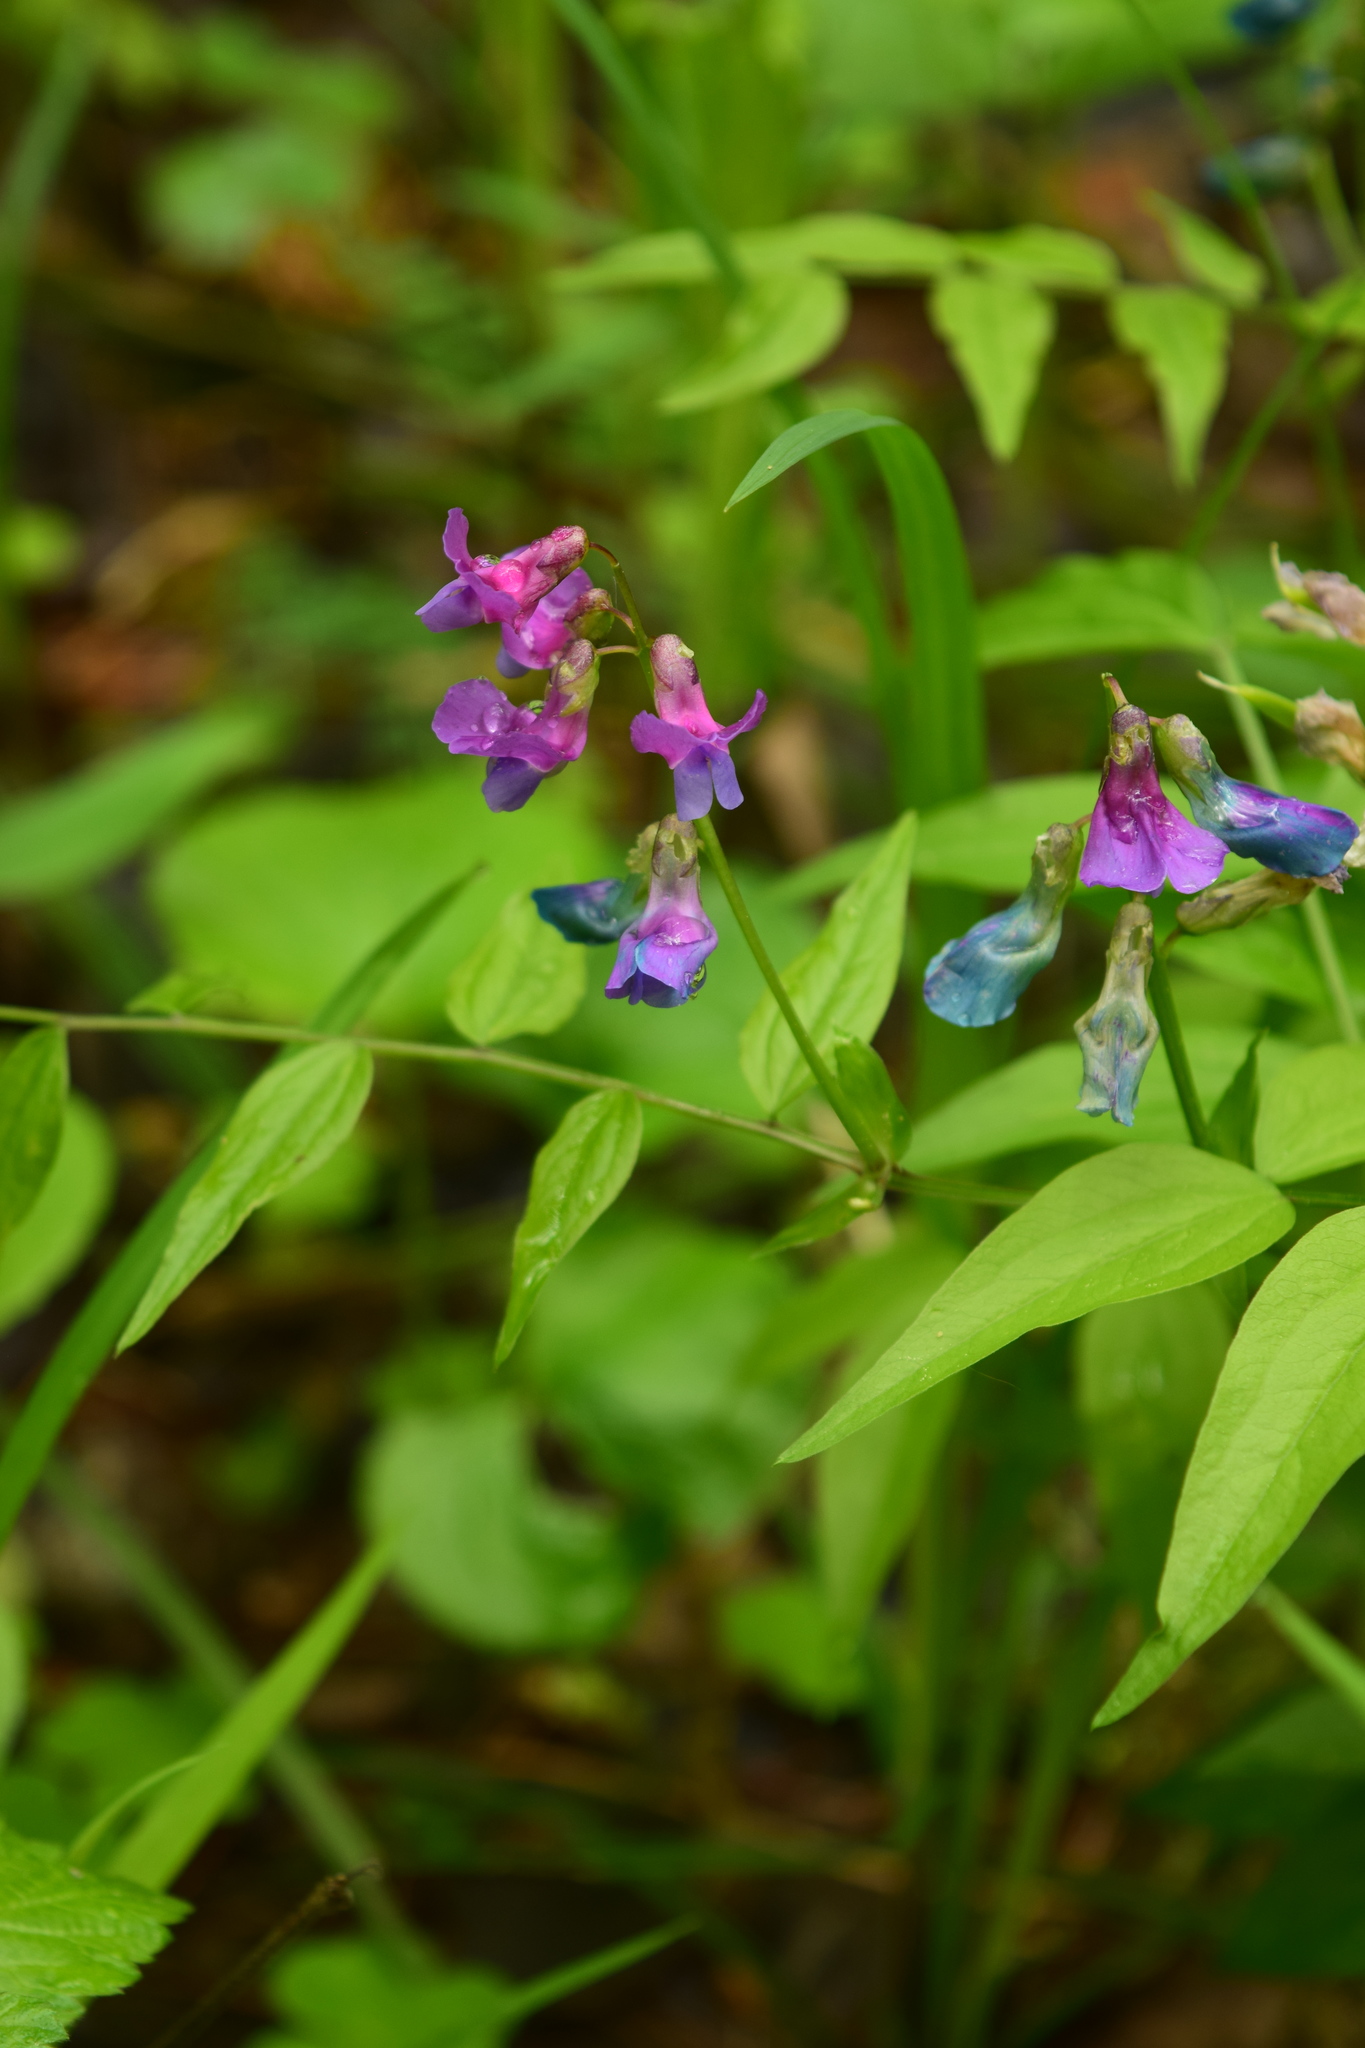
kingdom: Plantae
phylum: Tracheophyta
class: Magnoliopsida
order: Fabales
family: Fabaceae
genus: Lathyrus
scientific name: Lathyrus vernus
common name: Spring pea
